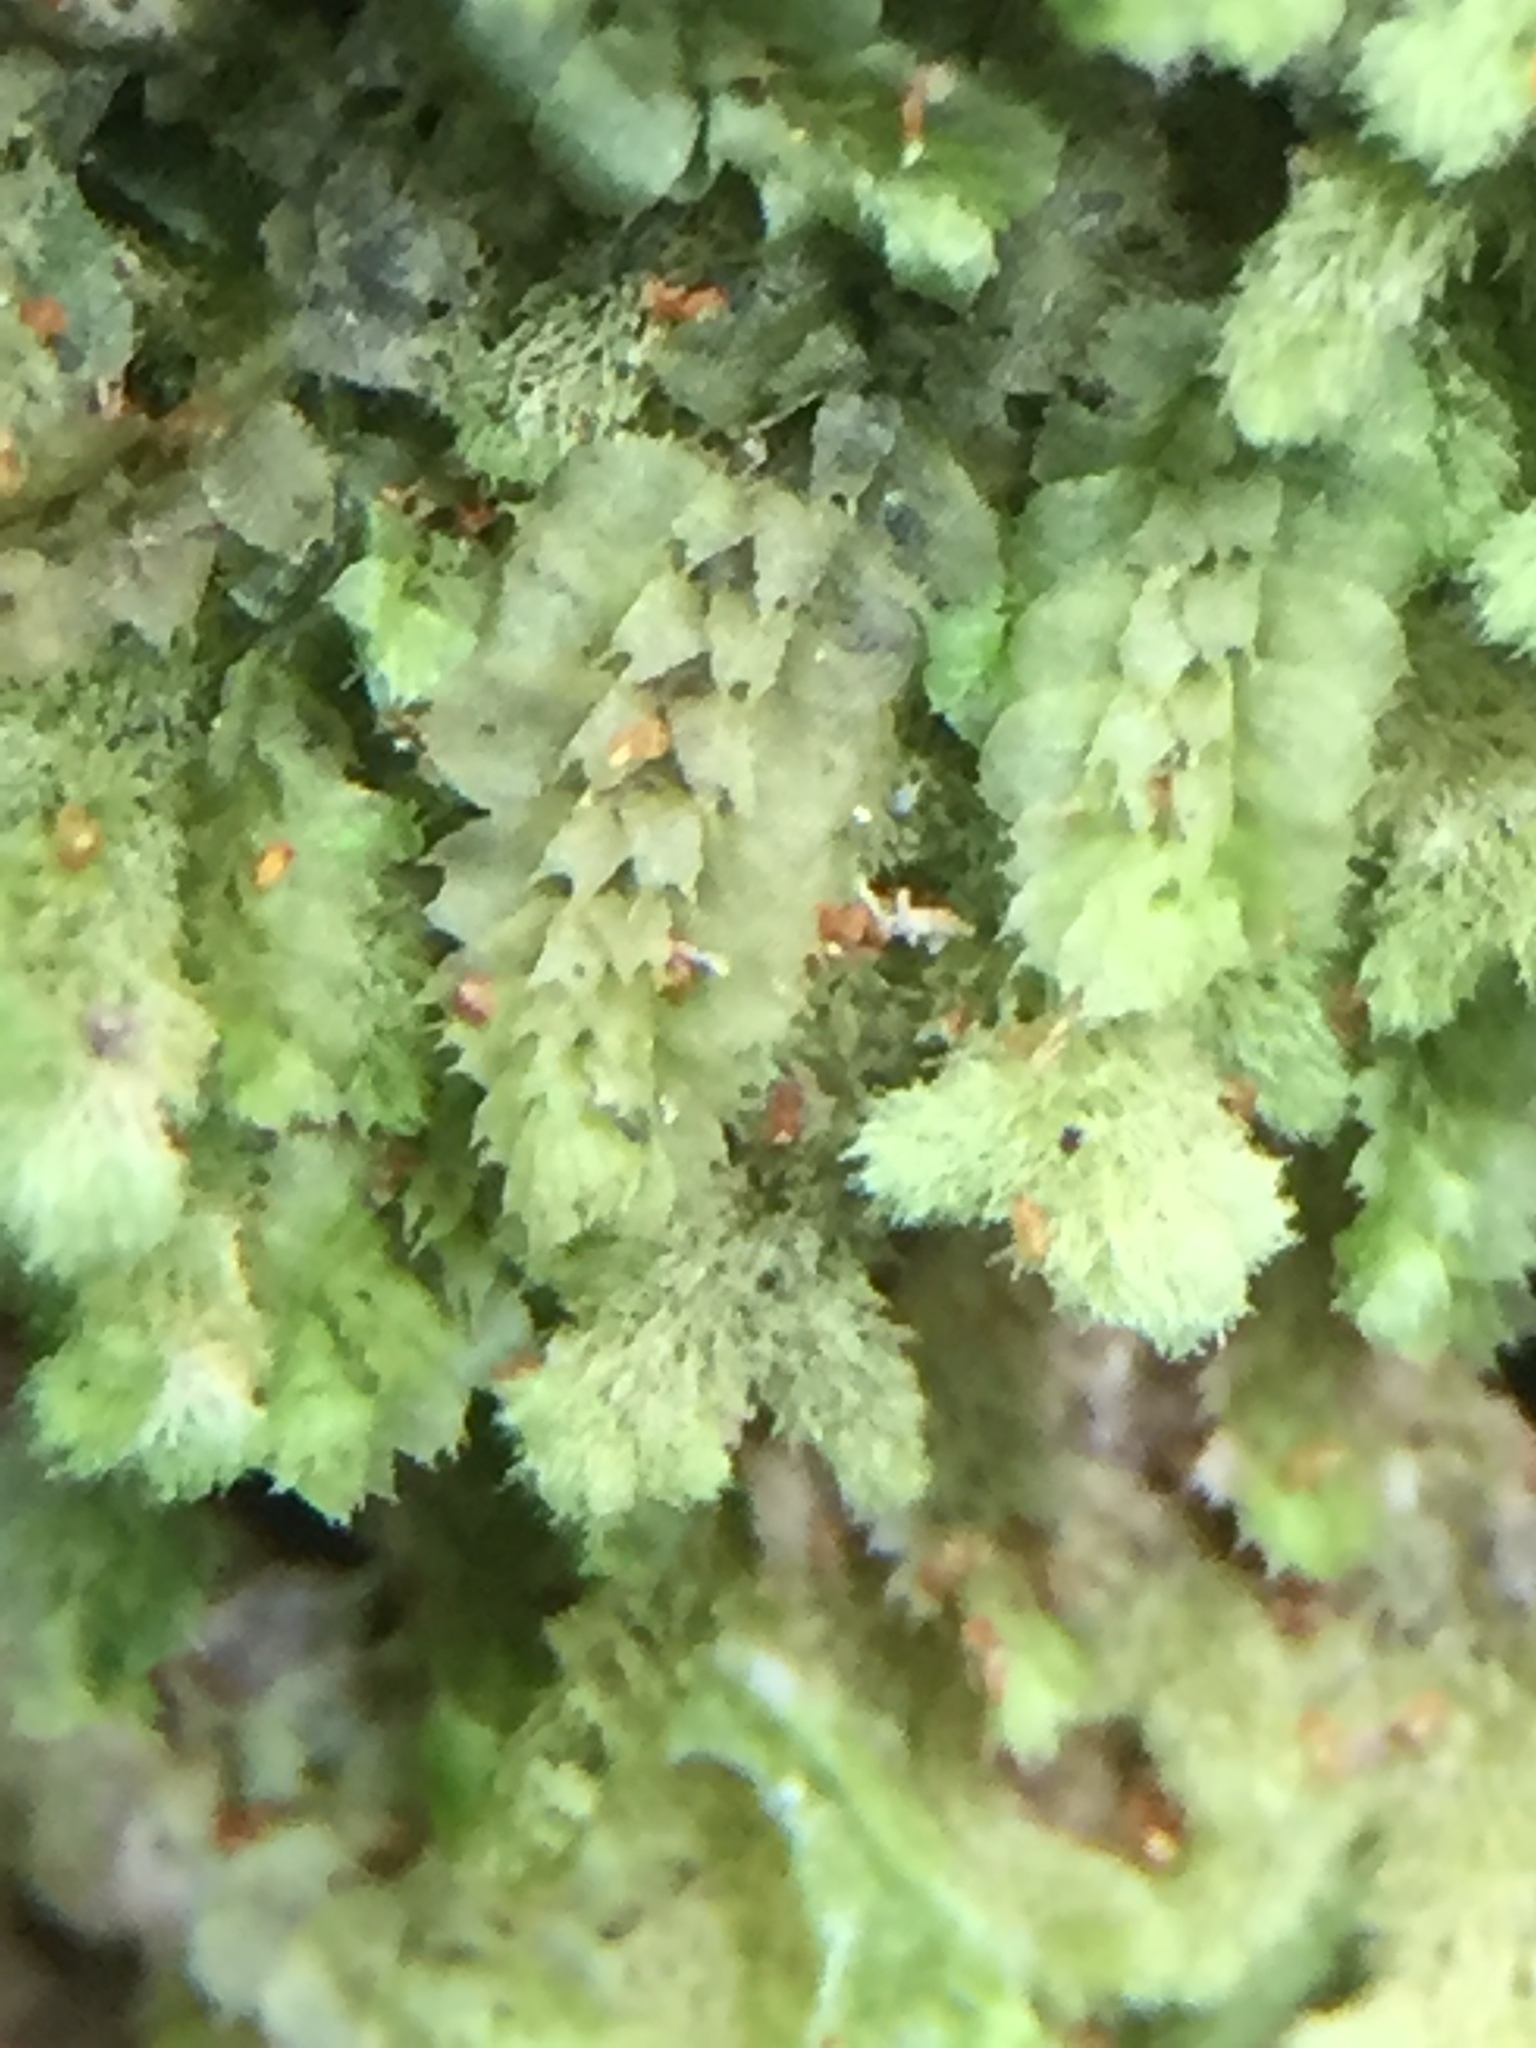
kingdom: Plantae
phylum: Marchantiophyta
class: Jungermanniopsida
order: Jungermanniales
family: Balantiopsidaceae
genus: Balantiopsis
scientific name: Balantiopsis diplophylla
